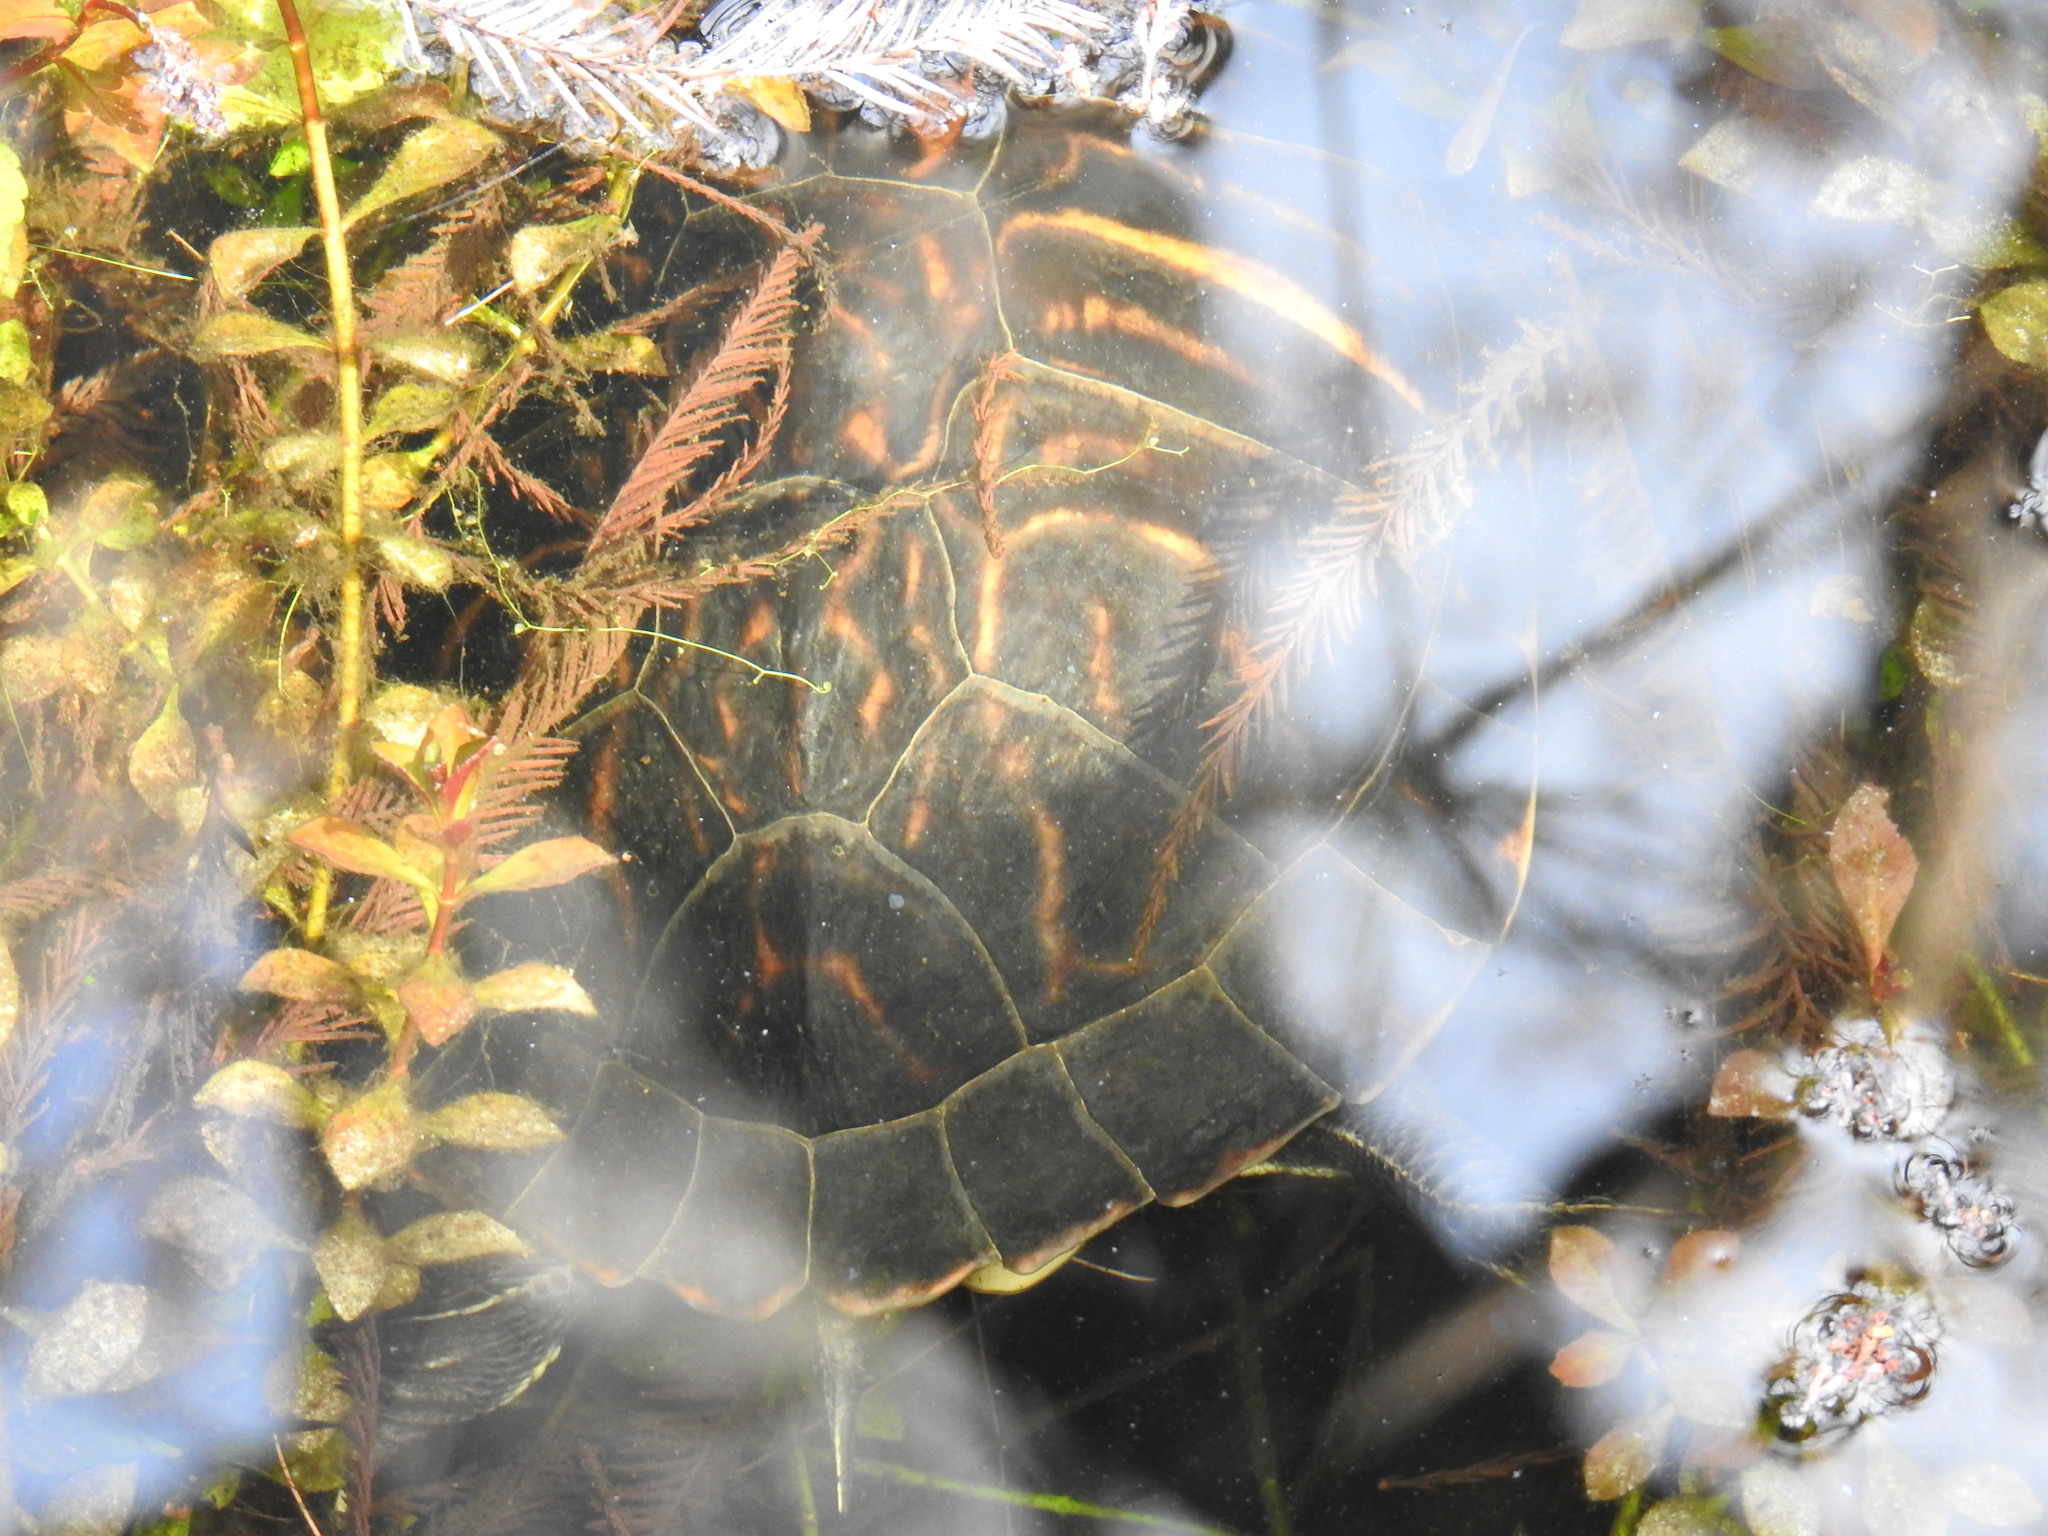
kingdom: Animalia
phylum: Chordata
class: Testudines
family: Emydidae
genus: Pseudemys
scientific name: Pseudemys nelsoni
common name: Florida red-bellied turtle
